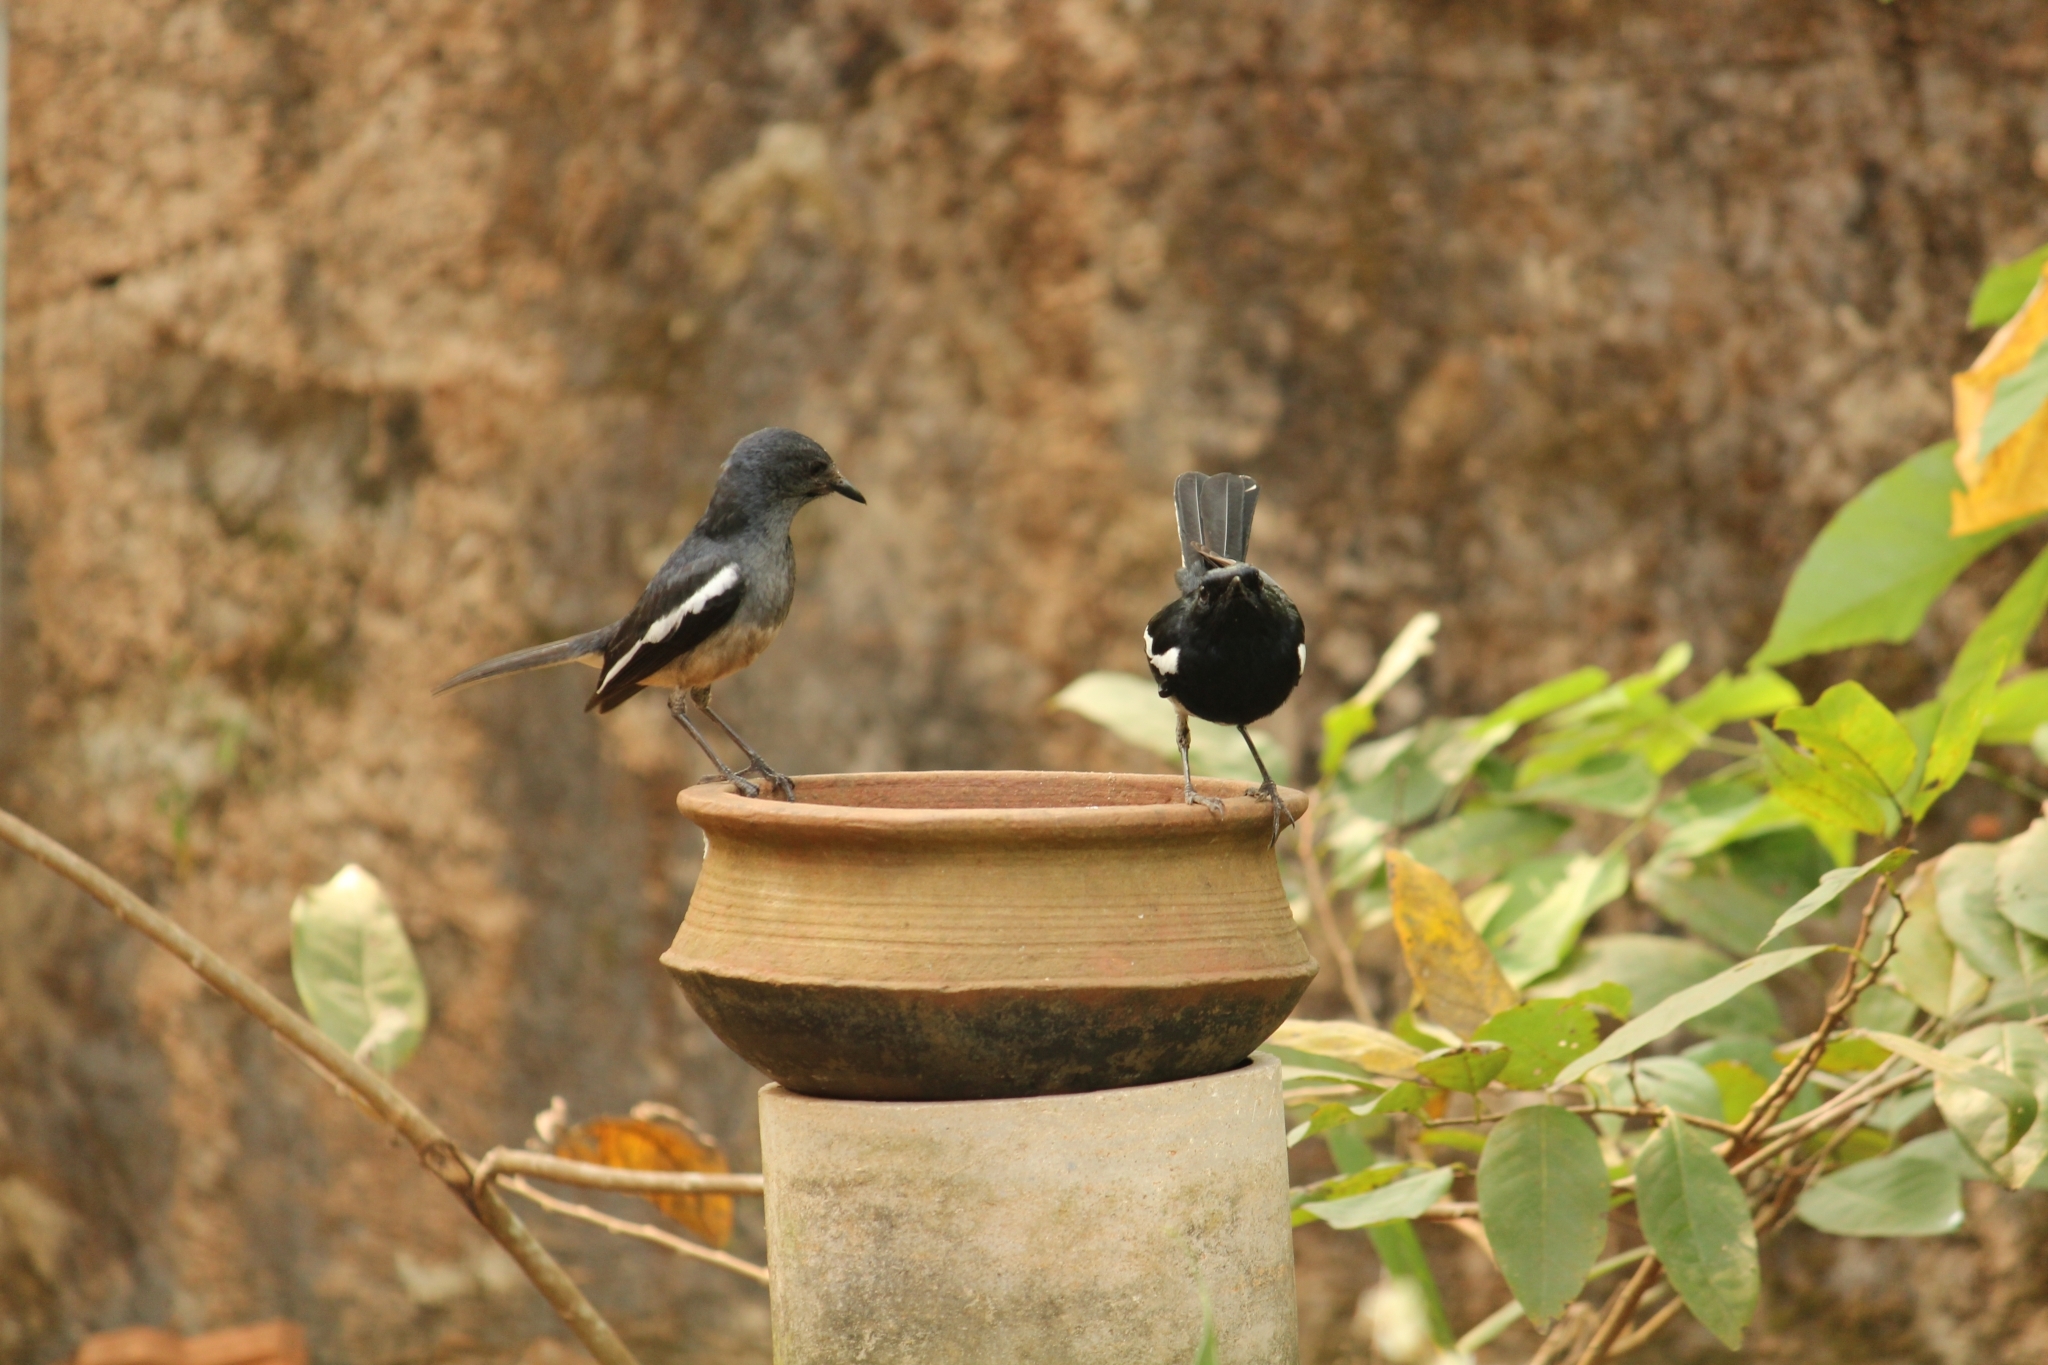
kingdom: Animalia
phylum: Chordata
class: Aves
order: Passeriformes
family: Muscicapidae
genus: Copsychus
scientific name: Copsychus saularis
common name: Oriental magpie-robin
